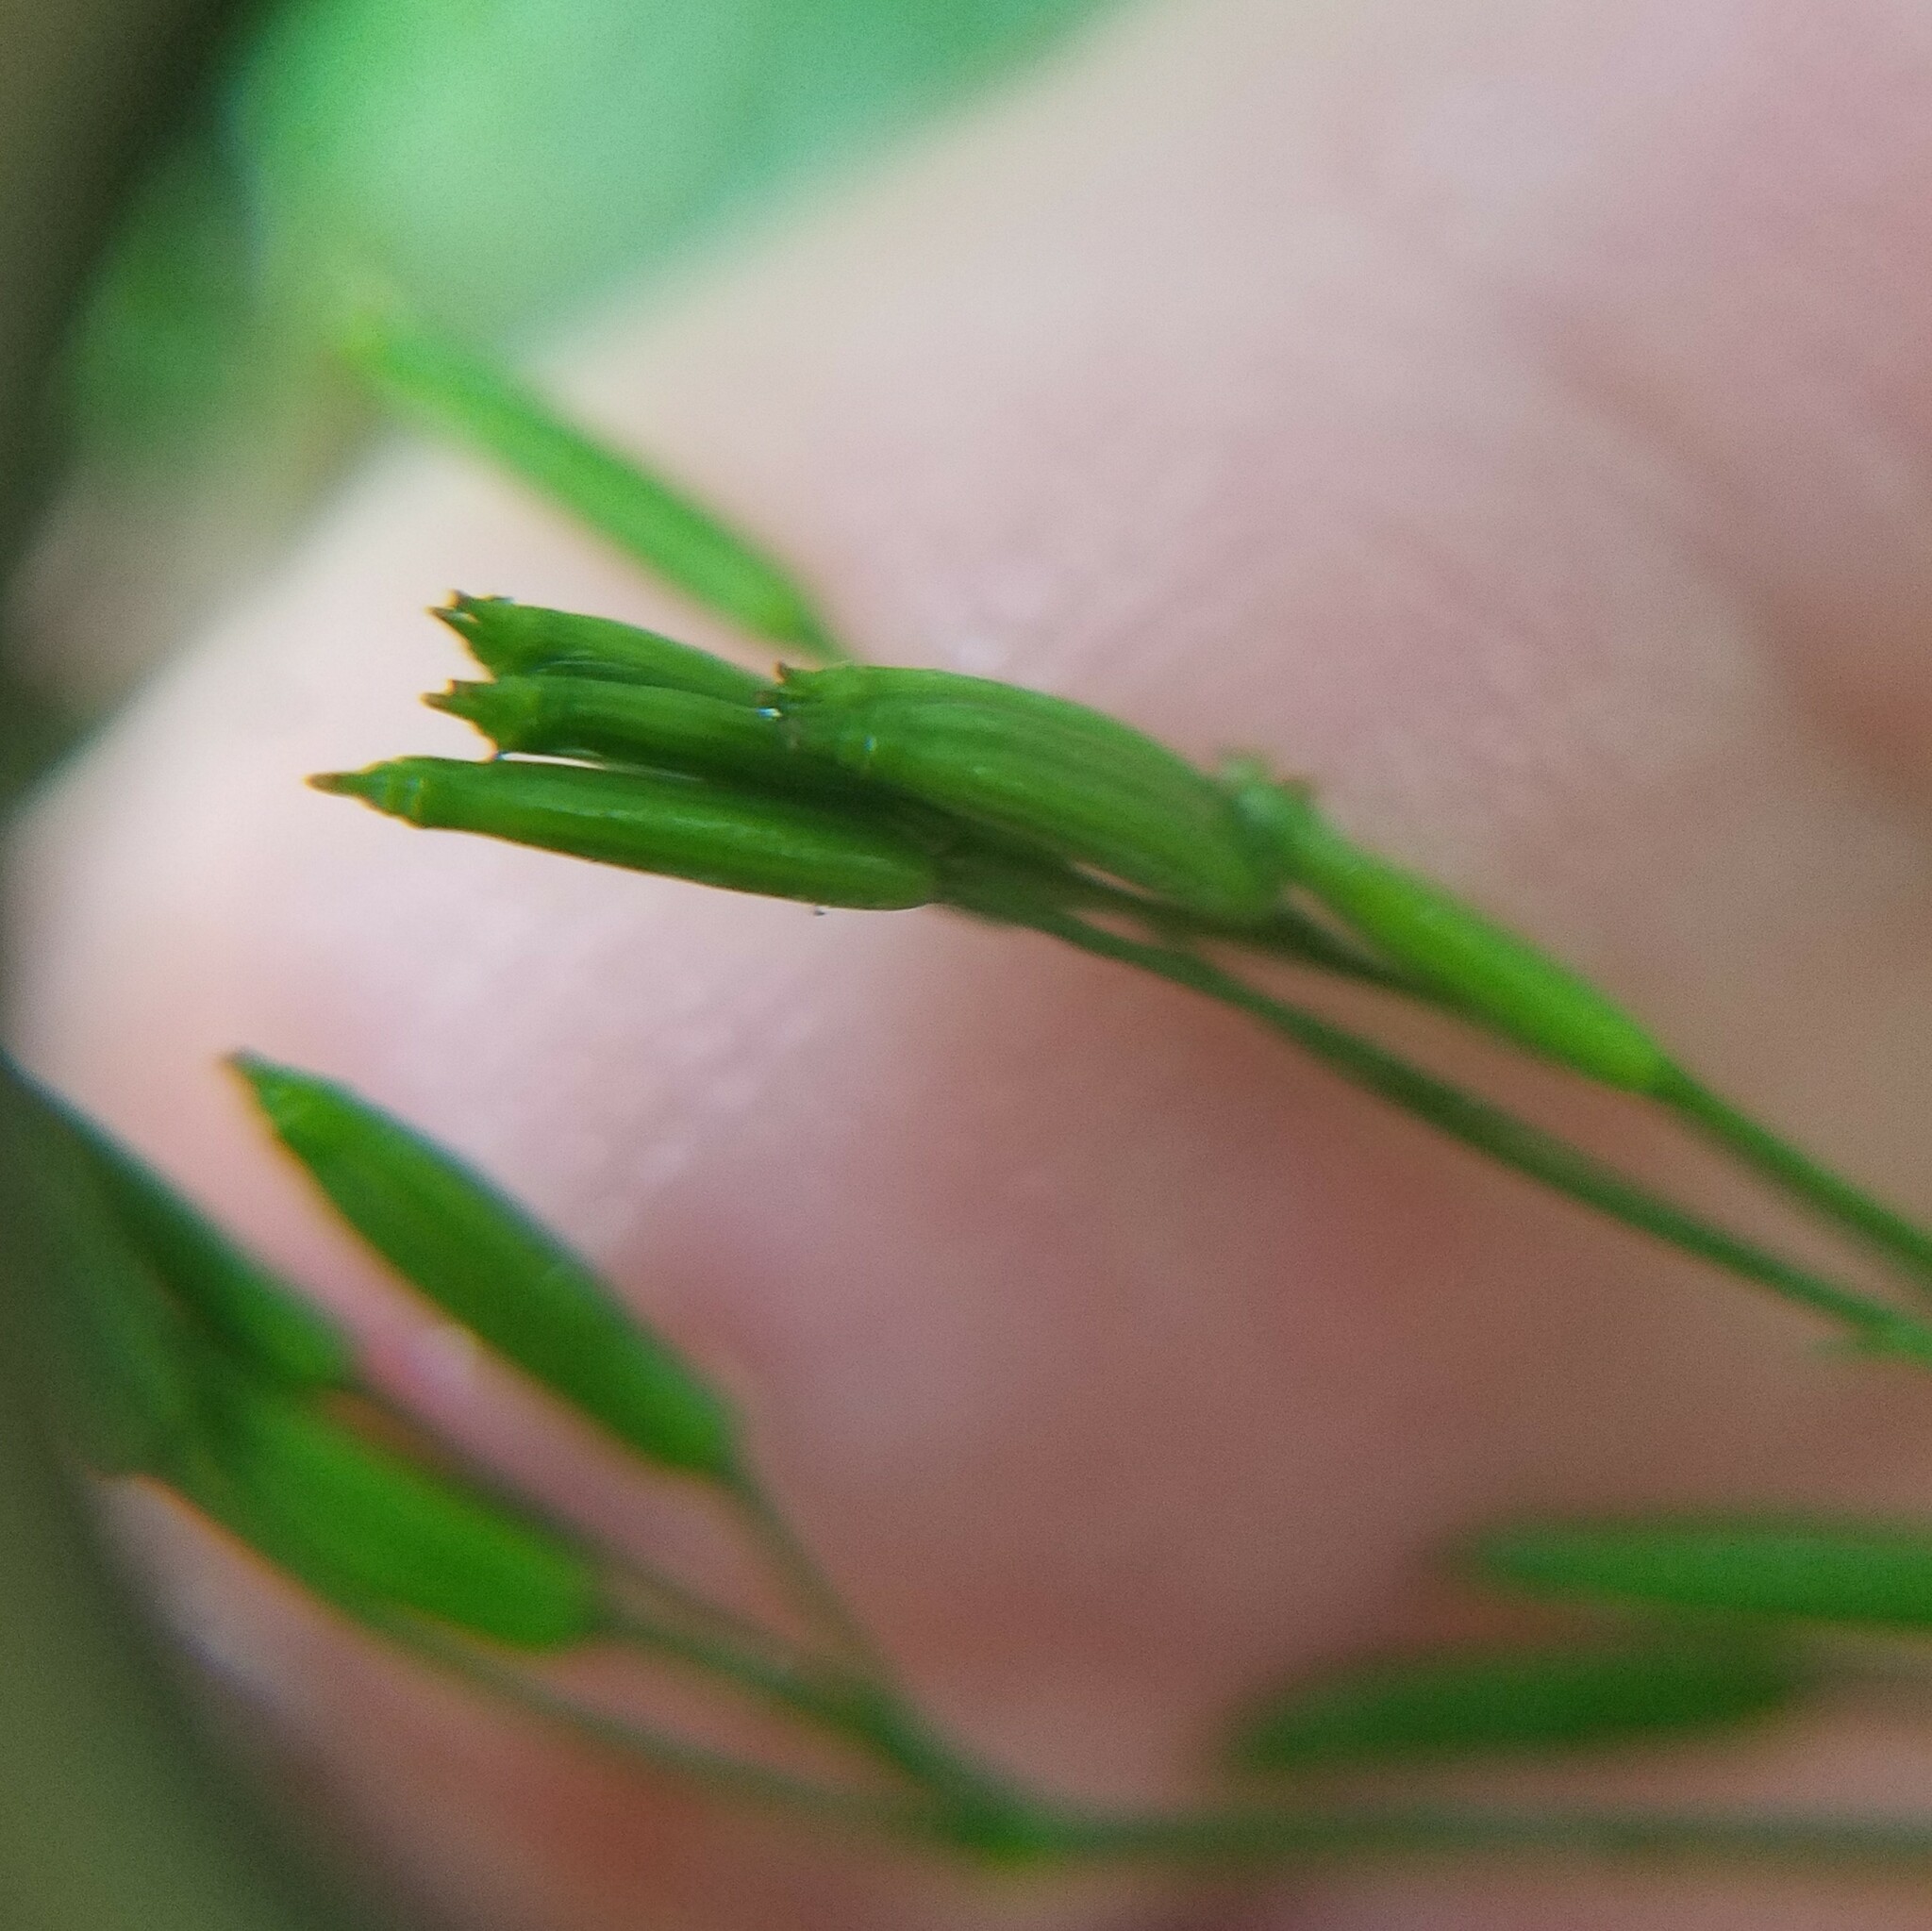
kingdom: Plantae
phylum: Tracheophyta
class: Magnoliopsida
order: Apiales
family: Apiaceae
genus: Cryptotaenia
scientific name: Cryptotaenia canadensis
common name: Honewort
